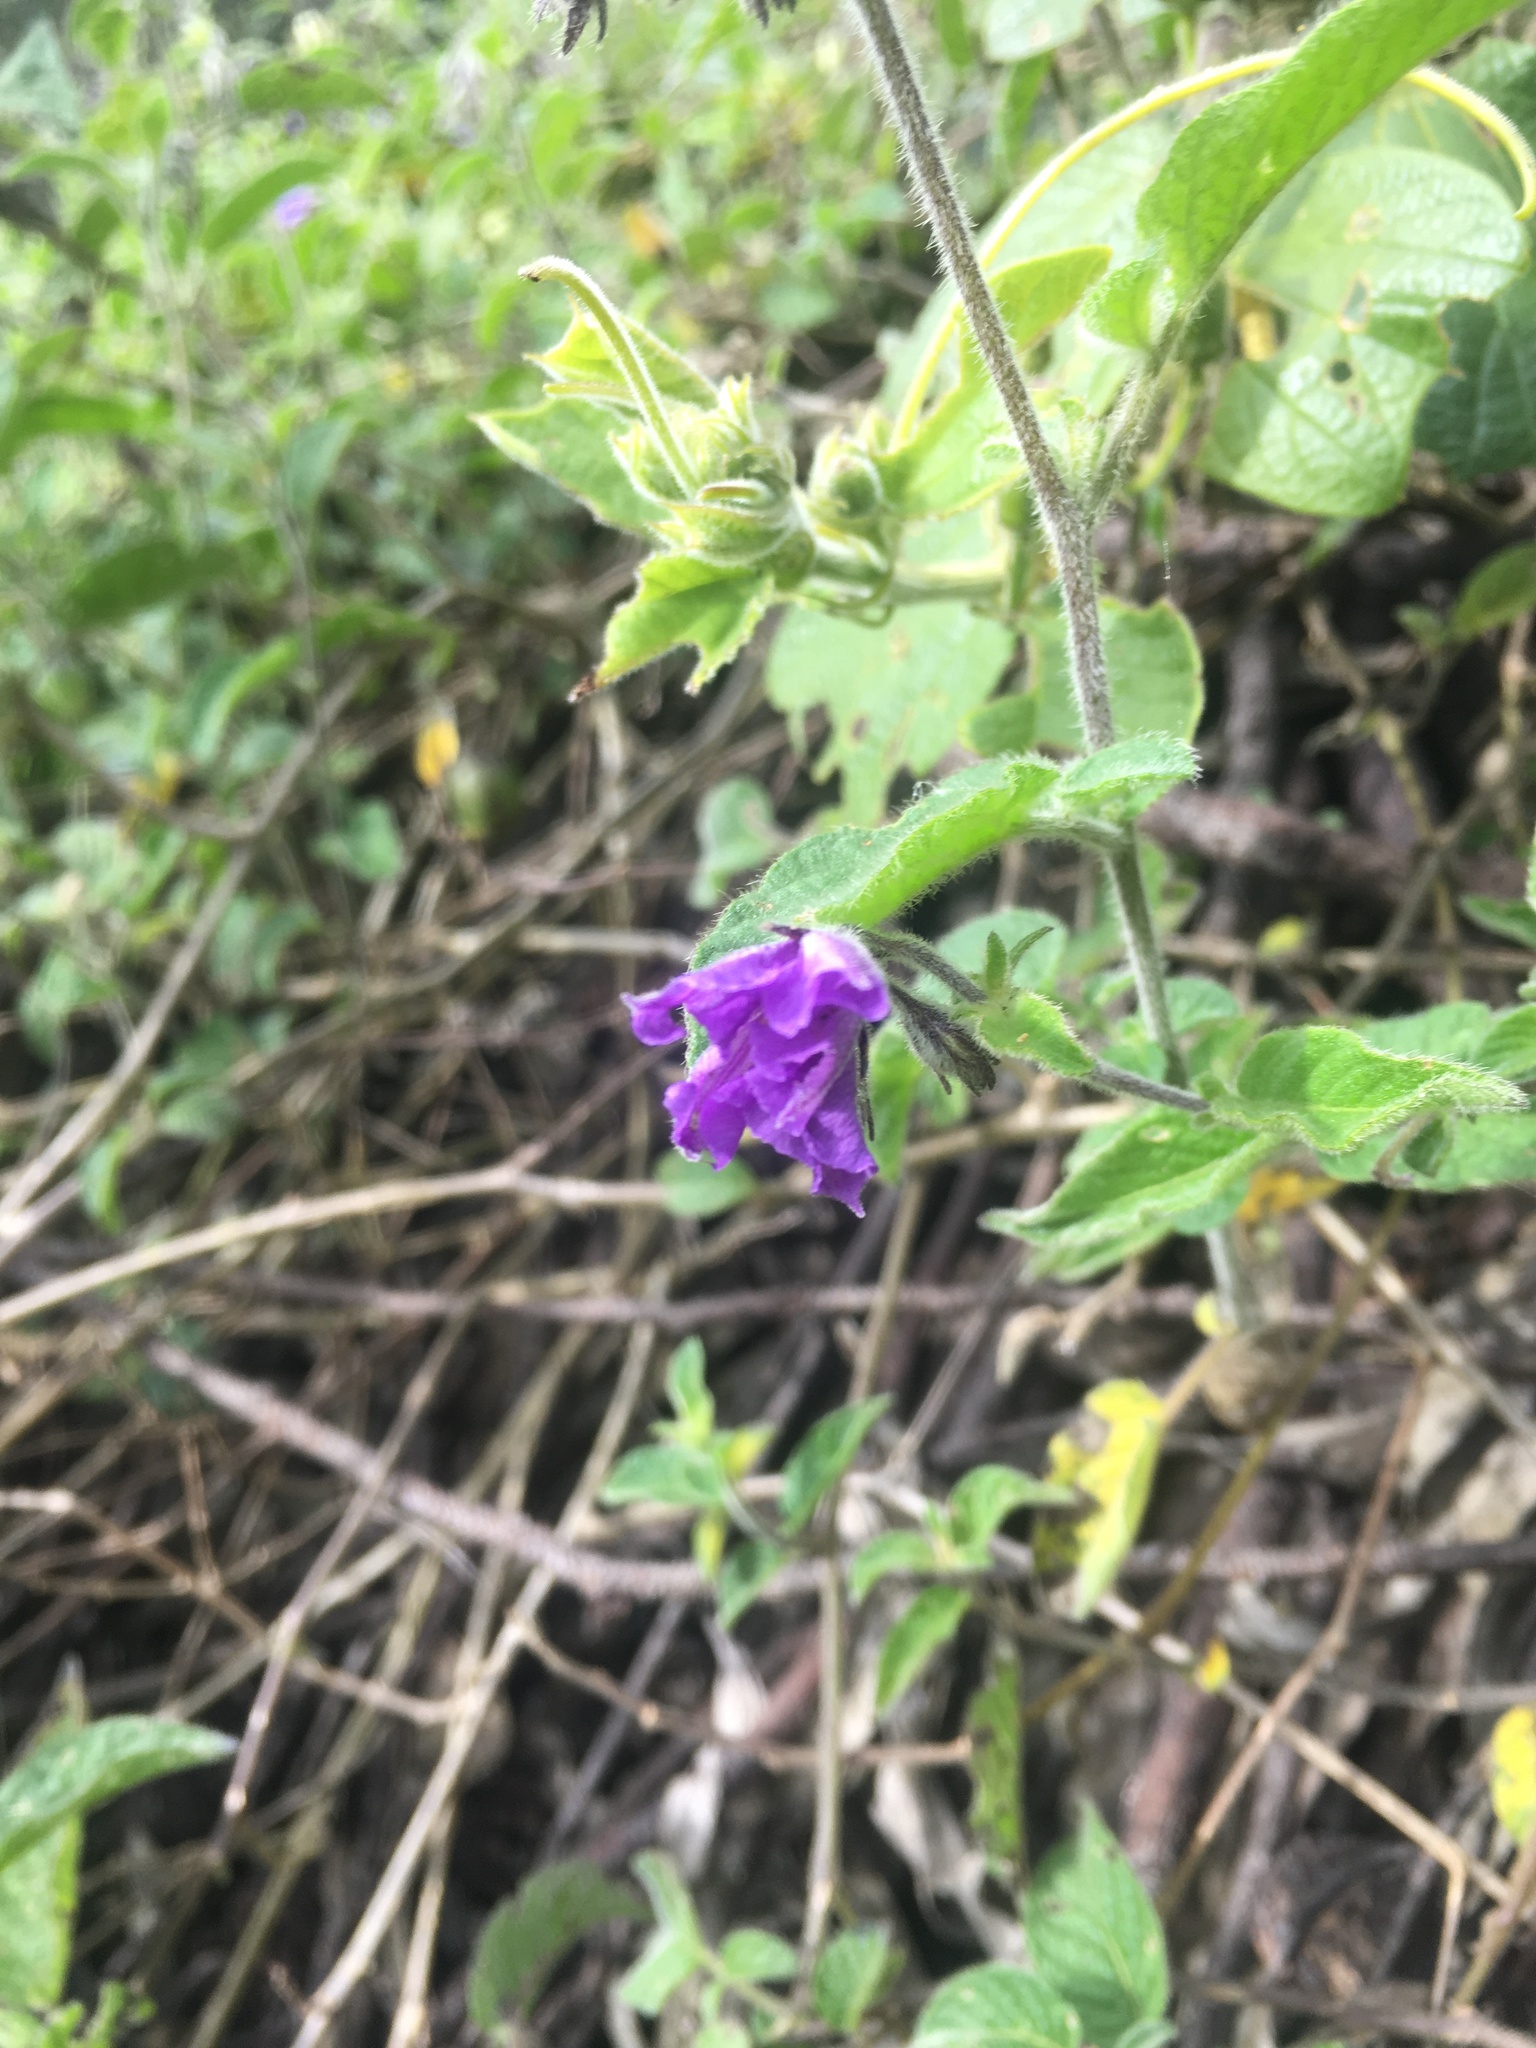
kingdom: Plantae
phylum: Tracheophyta
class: Magnoliopsida
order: Solanales
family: Solanaceae
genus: Solanum
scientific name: Solanum caripense
